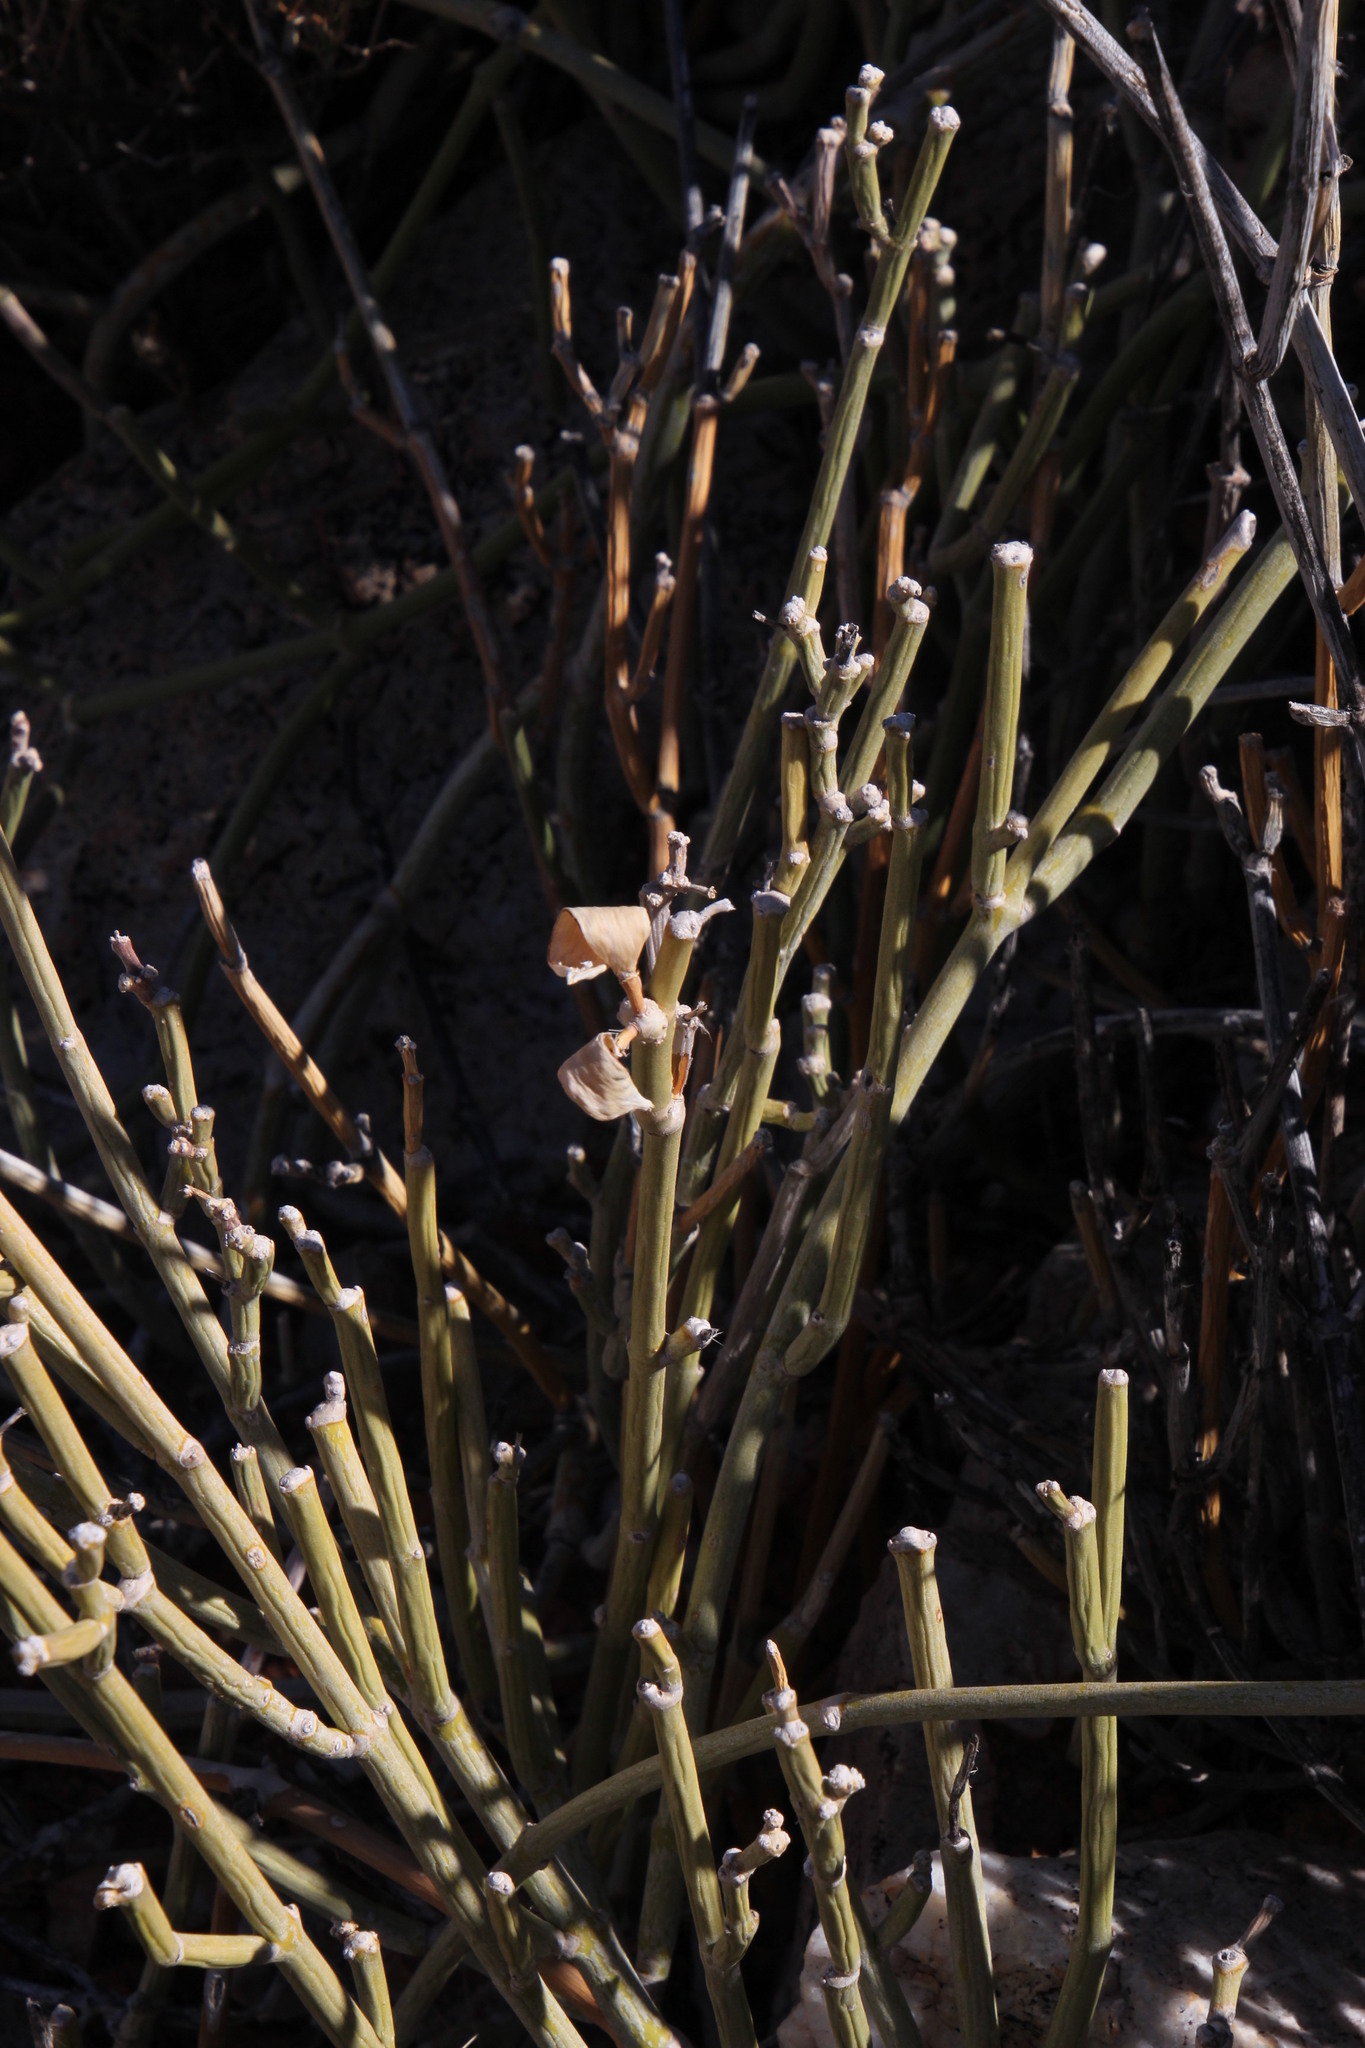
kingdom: Plantae
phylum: Tracheophyta
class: Magnoliopsida
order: Gentianales
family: Apocynaceae
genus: Cynanchum
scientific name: Cynanchum viminale
